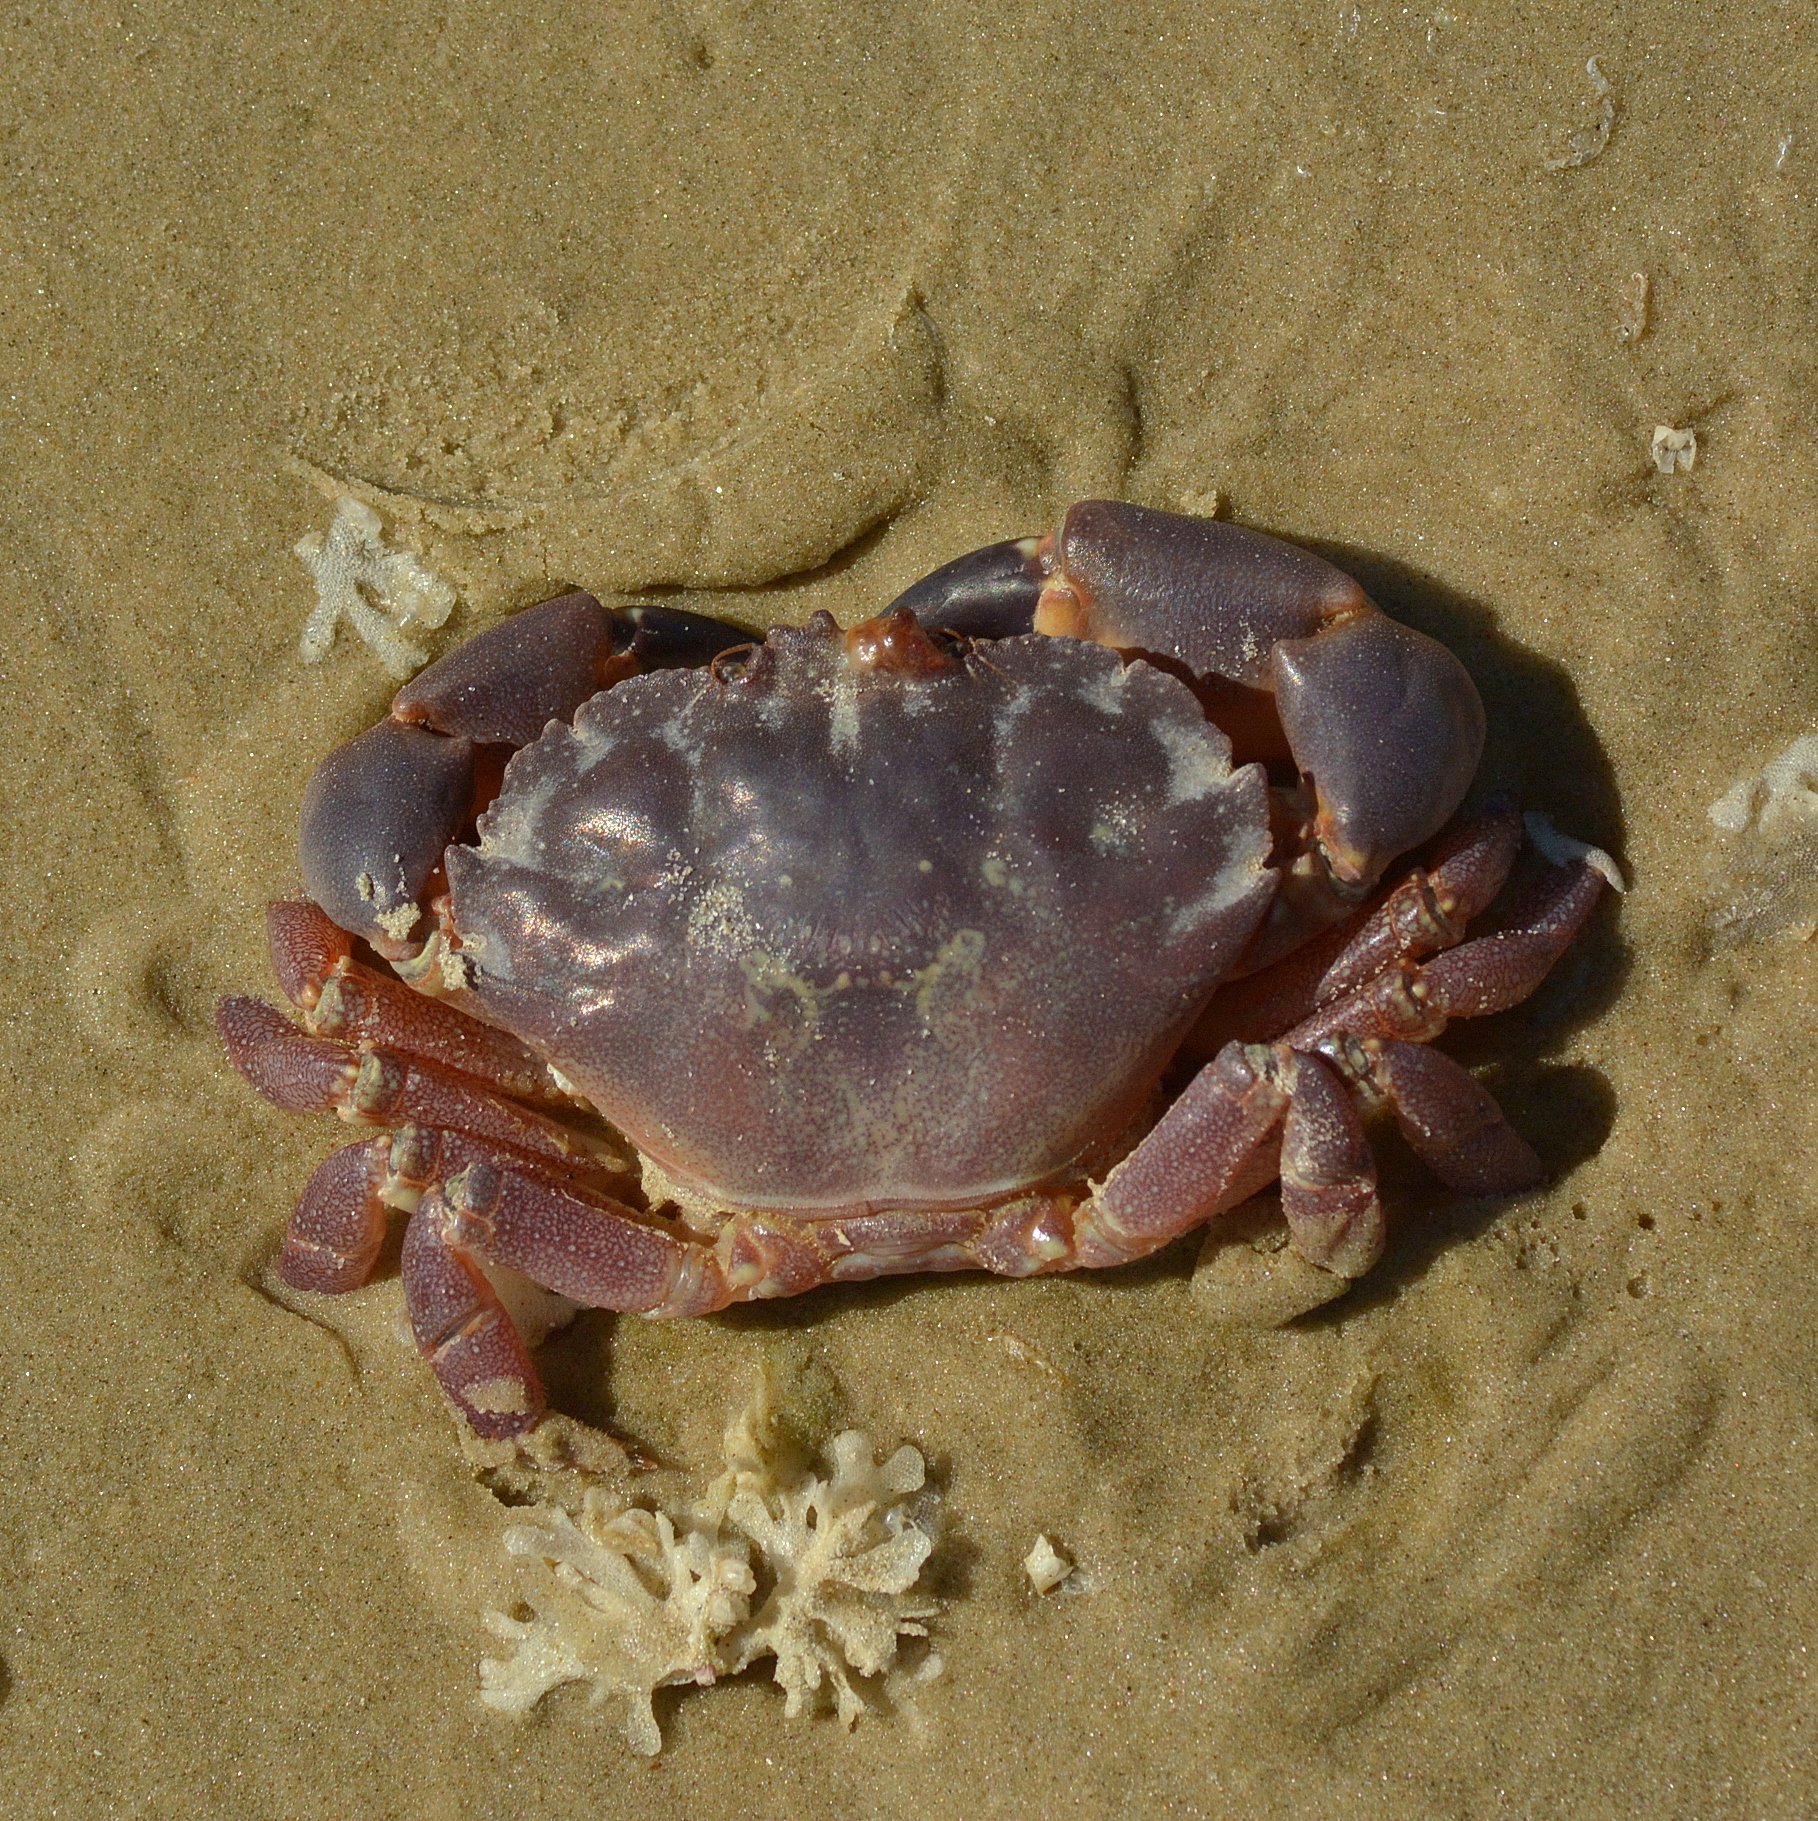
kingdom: Animalia
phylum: Arthropoda
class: Malacostraca
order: Decapoda
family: Platyxanthidae
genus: Danielethus
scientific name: Danielethus crenulatus
